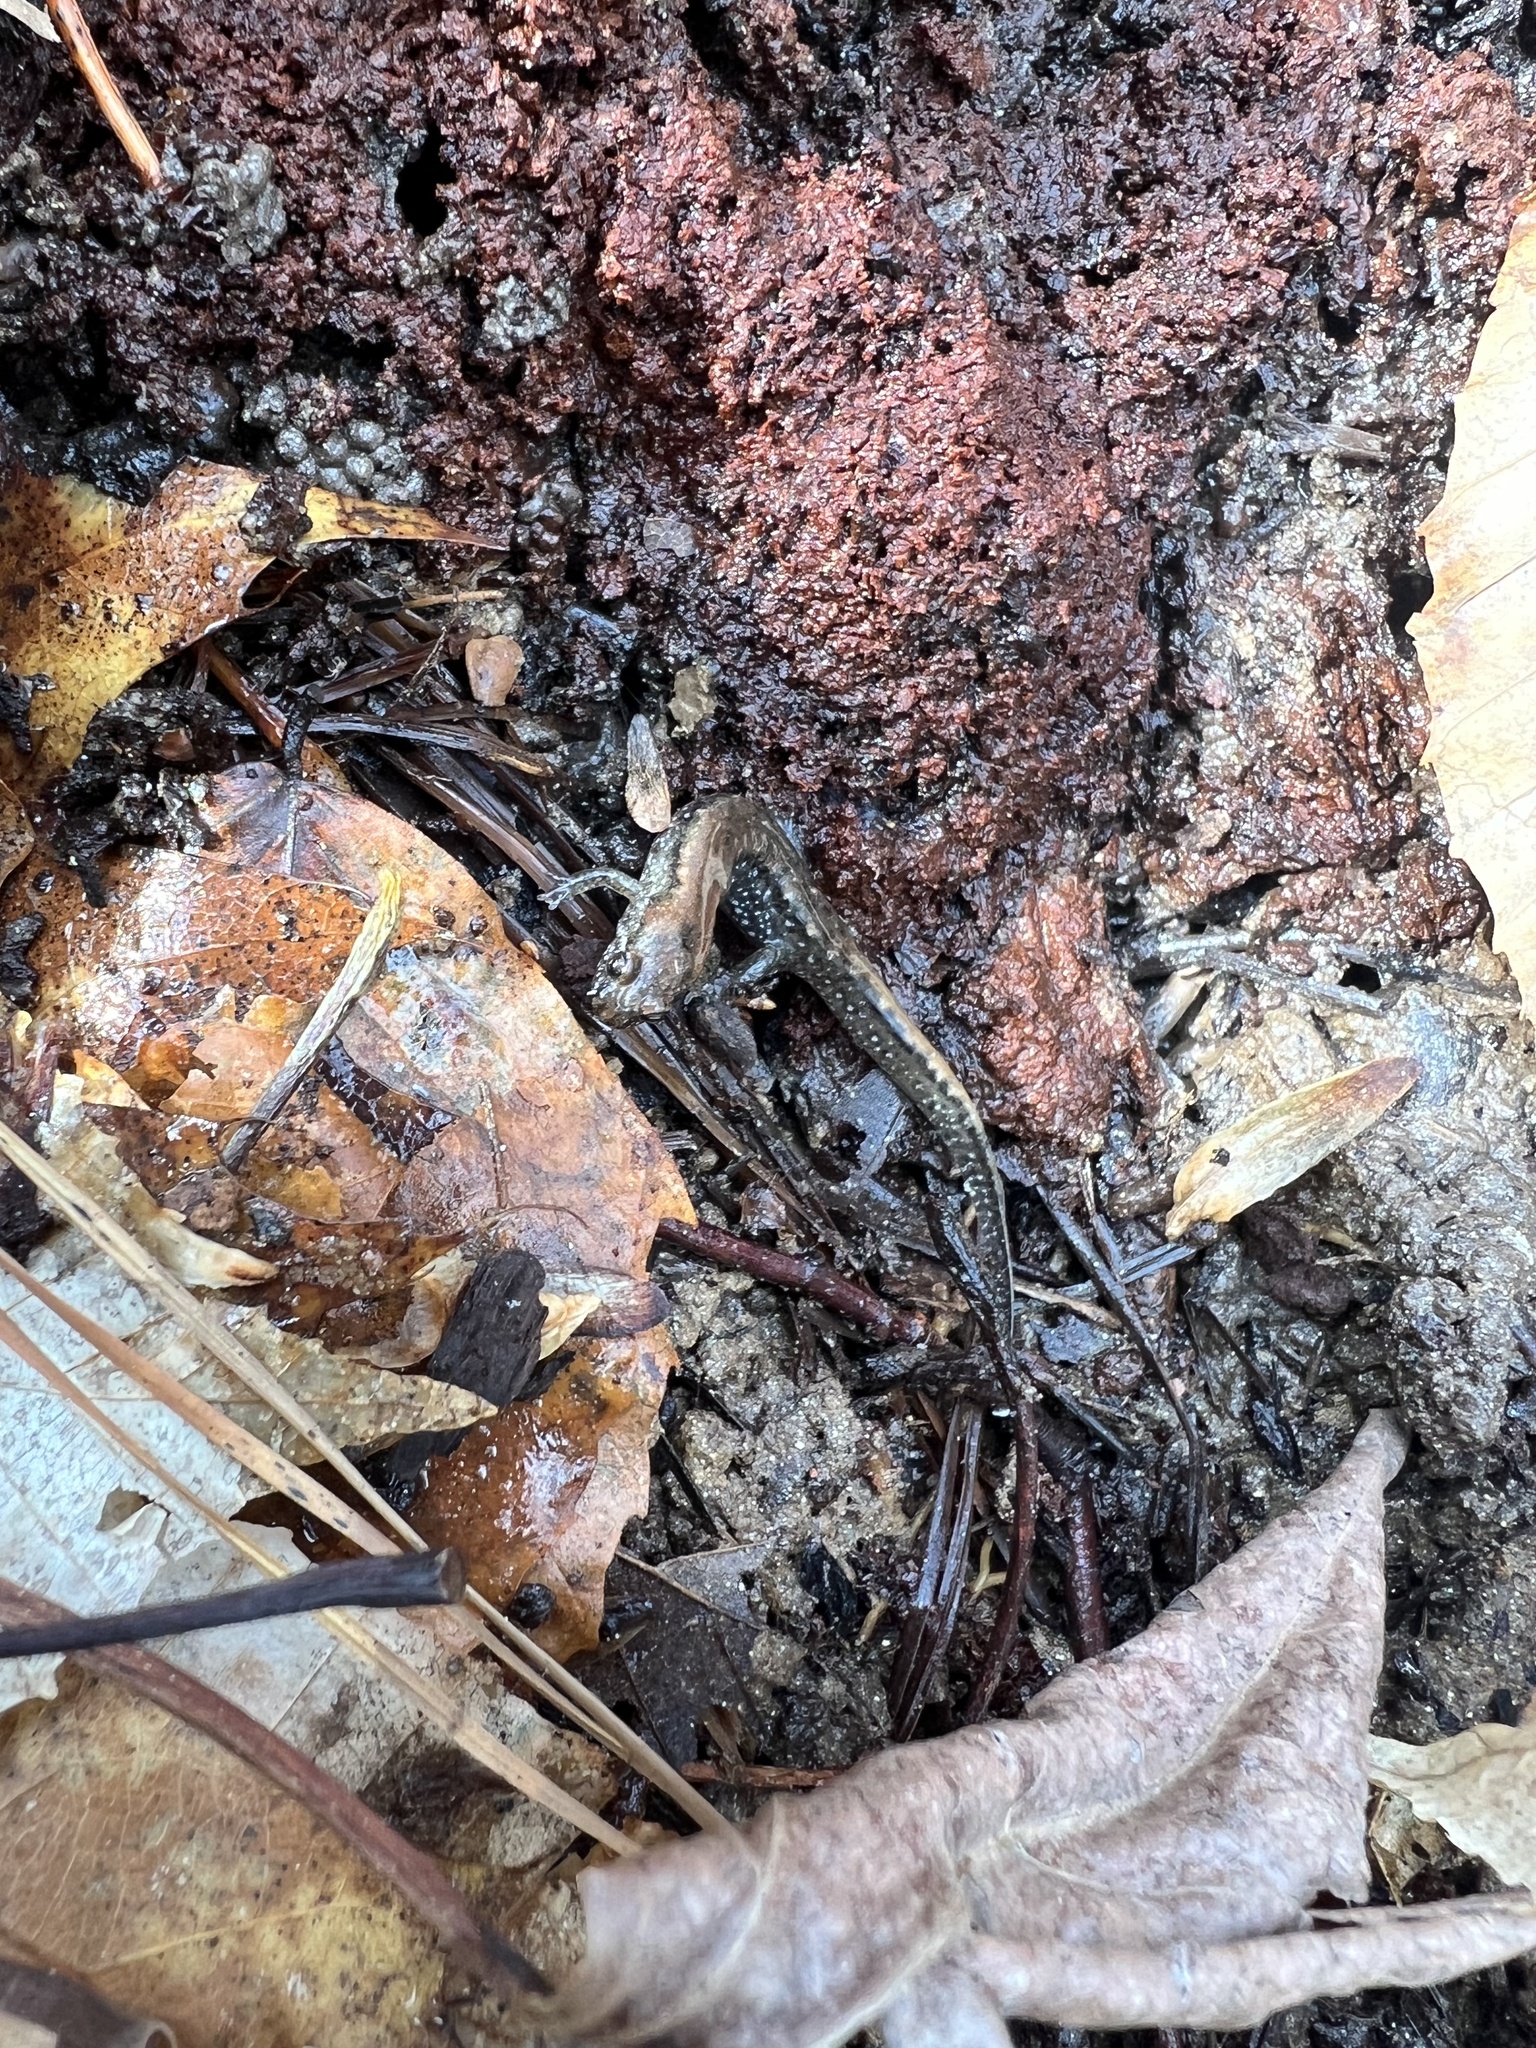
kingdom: Animalia
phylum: Chordata
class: Amphibia
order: Caudata
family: Plethodontidae
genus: Desmognathus
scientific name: Desmognathus
